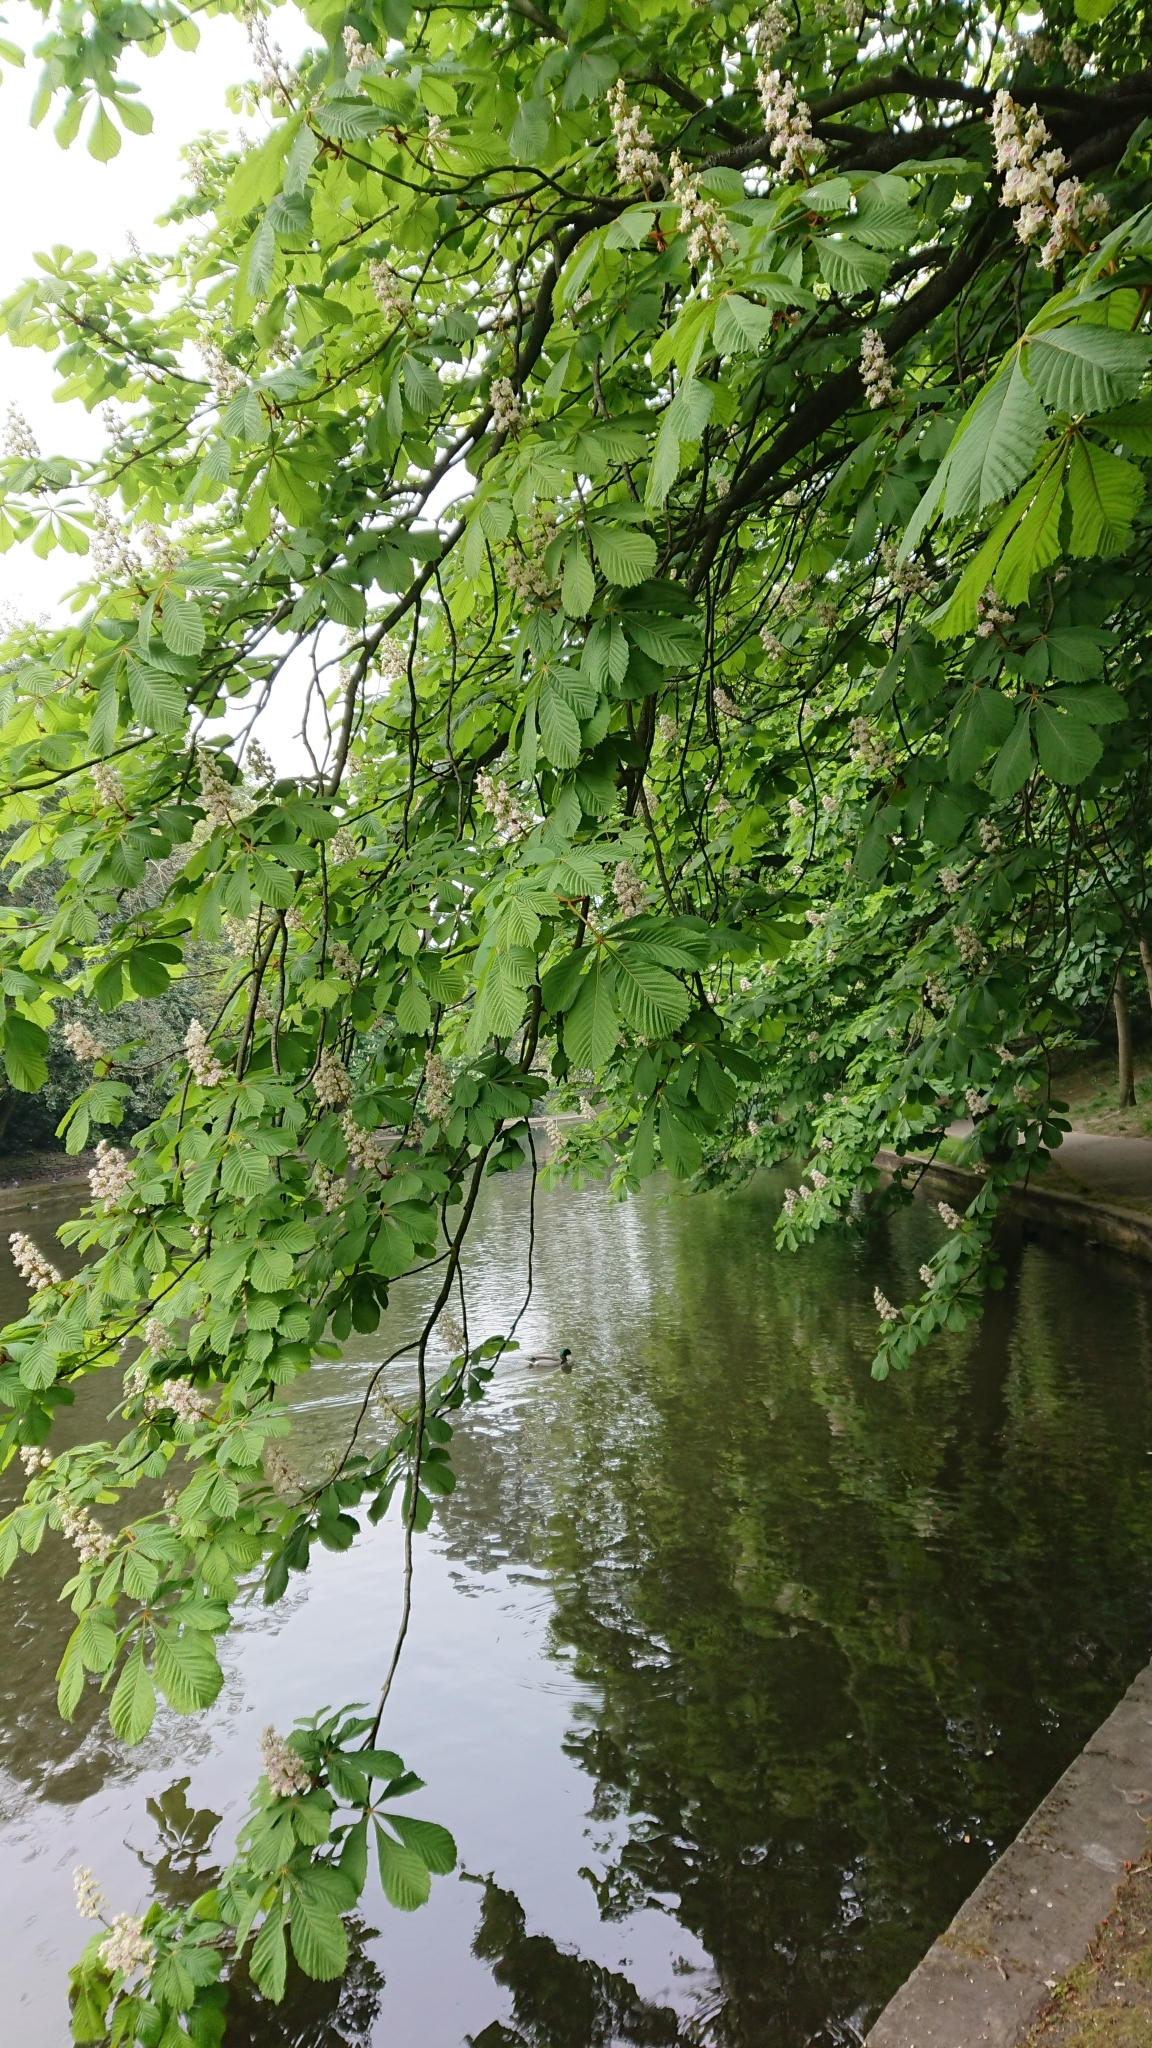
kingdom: Plantae
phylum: Tracheophyta
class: Magnoliopsida
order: Sapindales
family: Sapindaceae
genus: Aesculus
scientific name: Aesculus hippocastanum
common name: Horse-chestnut
